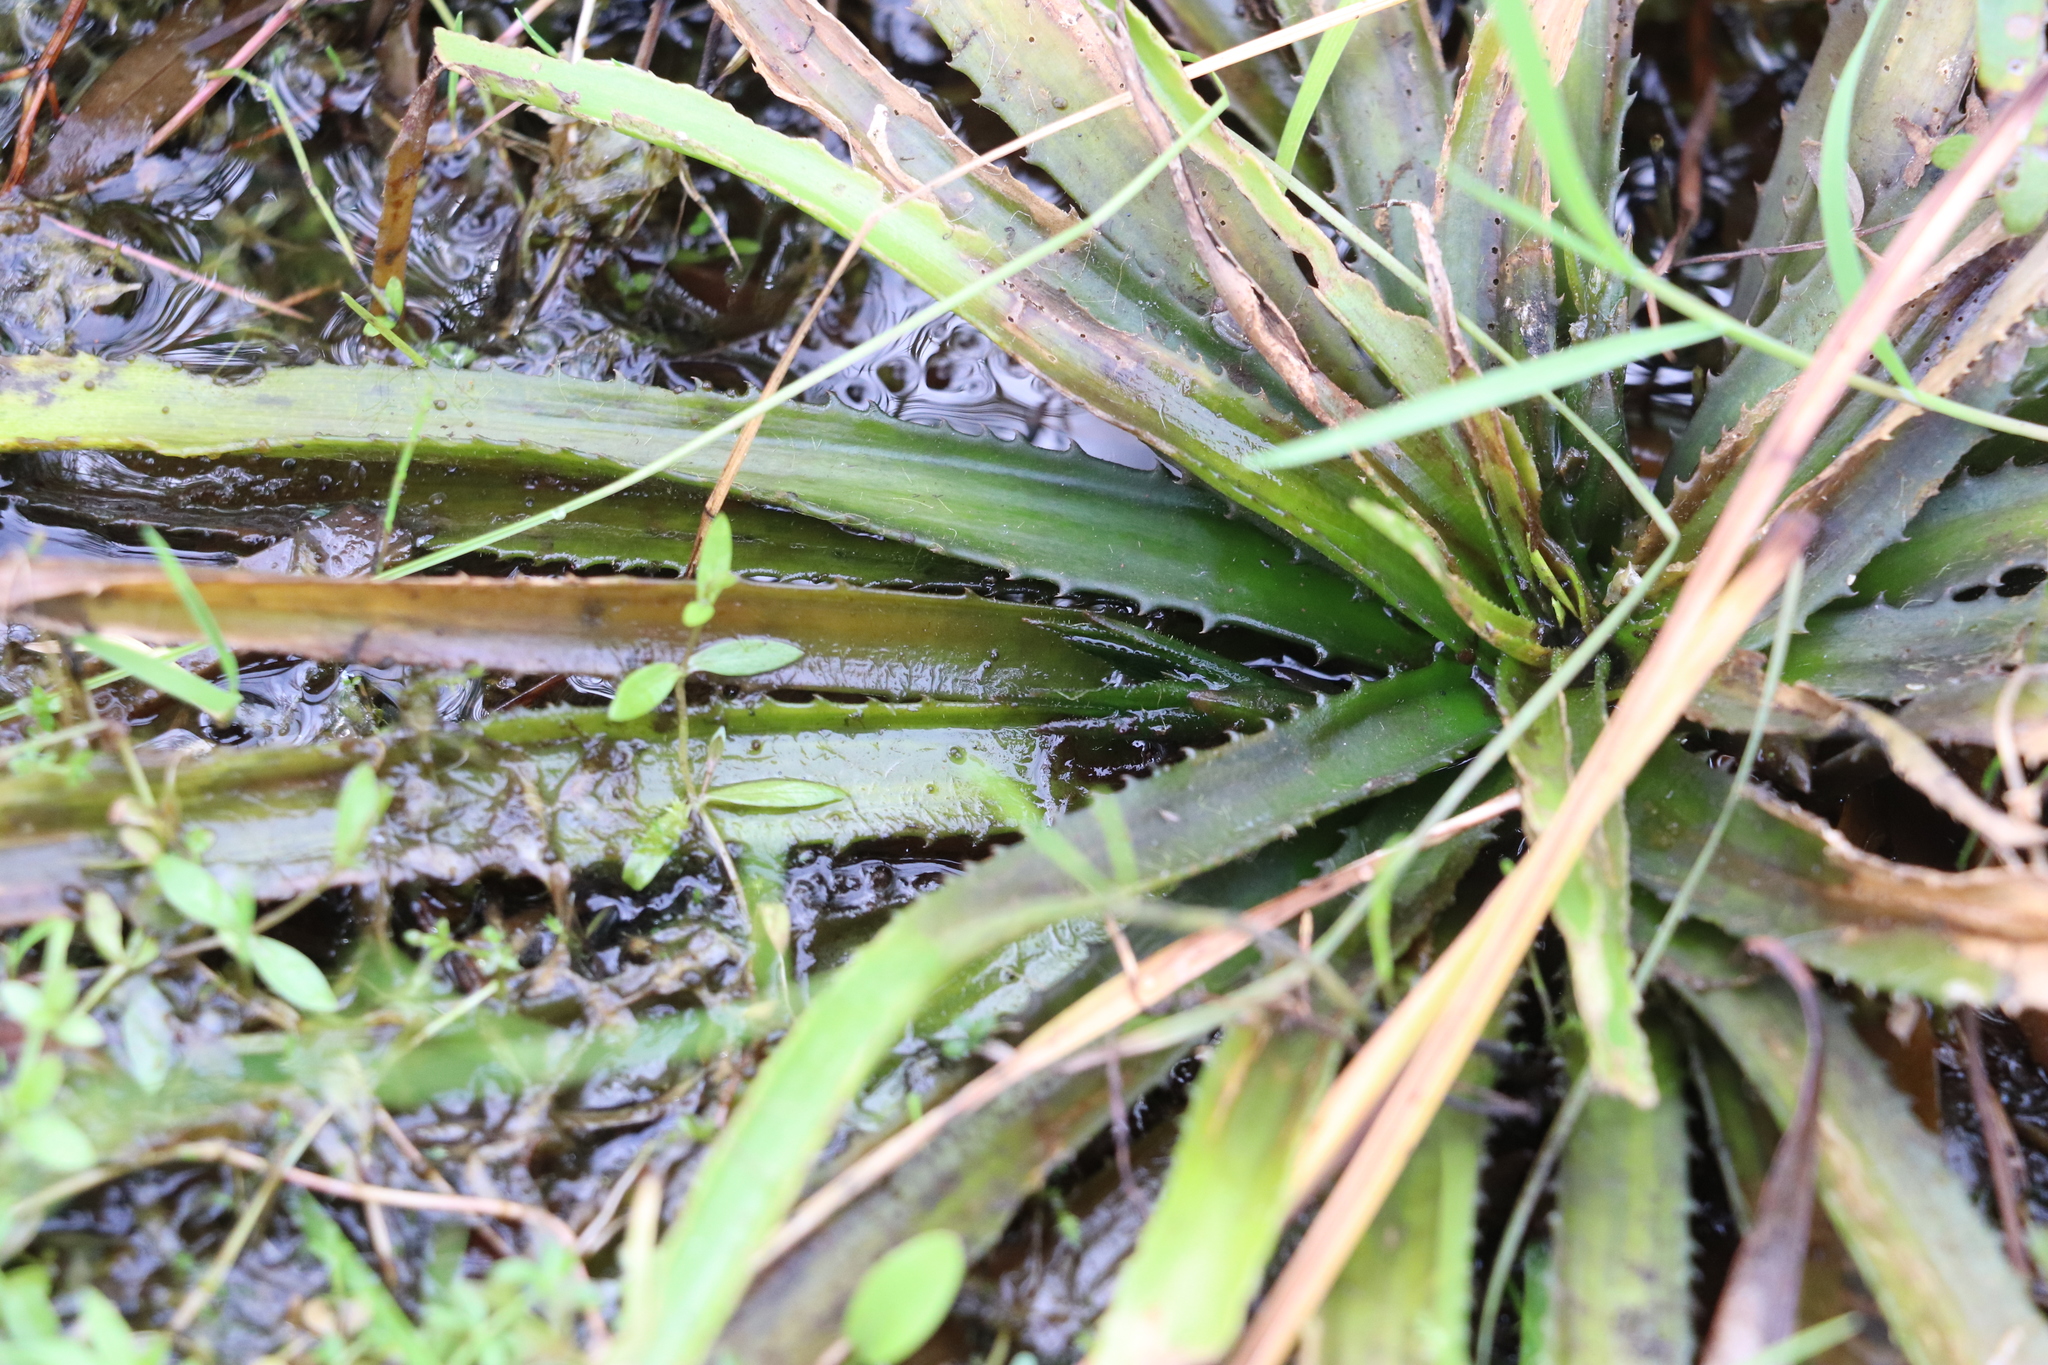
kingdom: Plantae
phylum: Tracheophyta
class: Liliopsida
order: Alismatales
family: Hydrocharitaceae
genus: Stratiotes
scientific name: Stratiotes aloides
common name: Water-soldier
